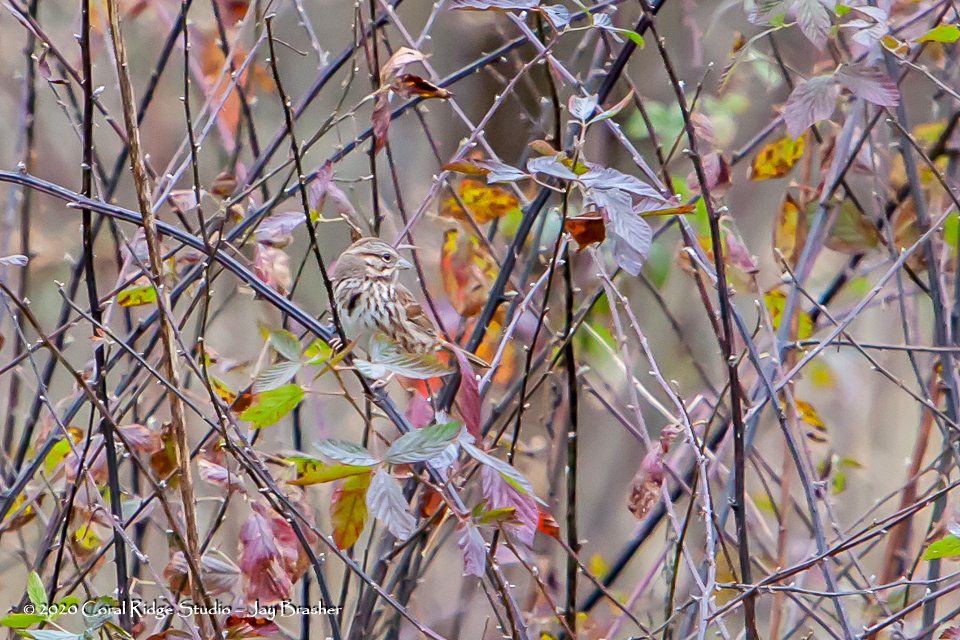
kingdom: Animalia
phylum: Chordata
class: Aves
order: Passeriformes
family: Passerellidae
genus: Melospiza
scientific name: Melospiza melodia
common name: Song sparrow
